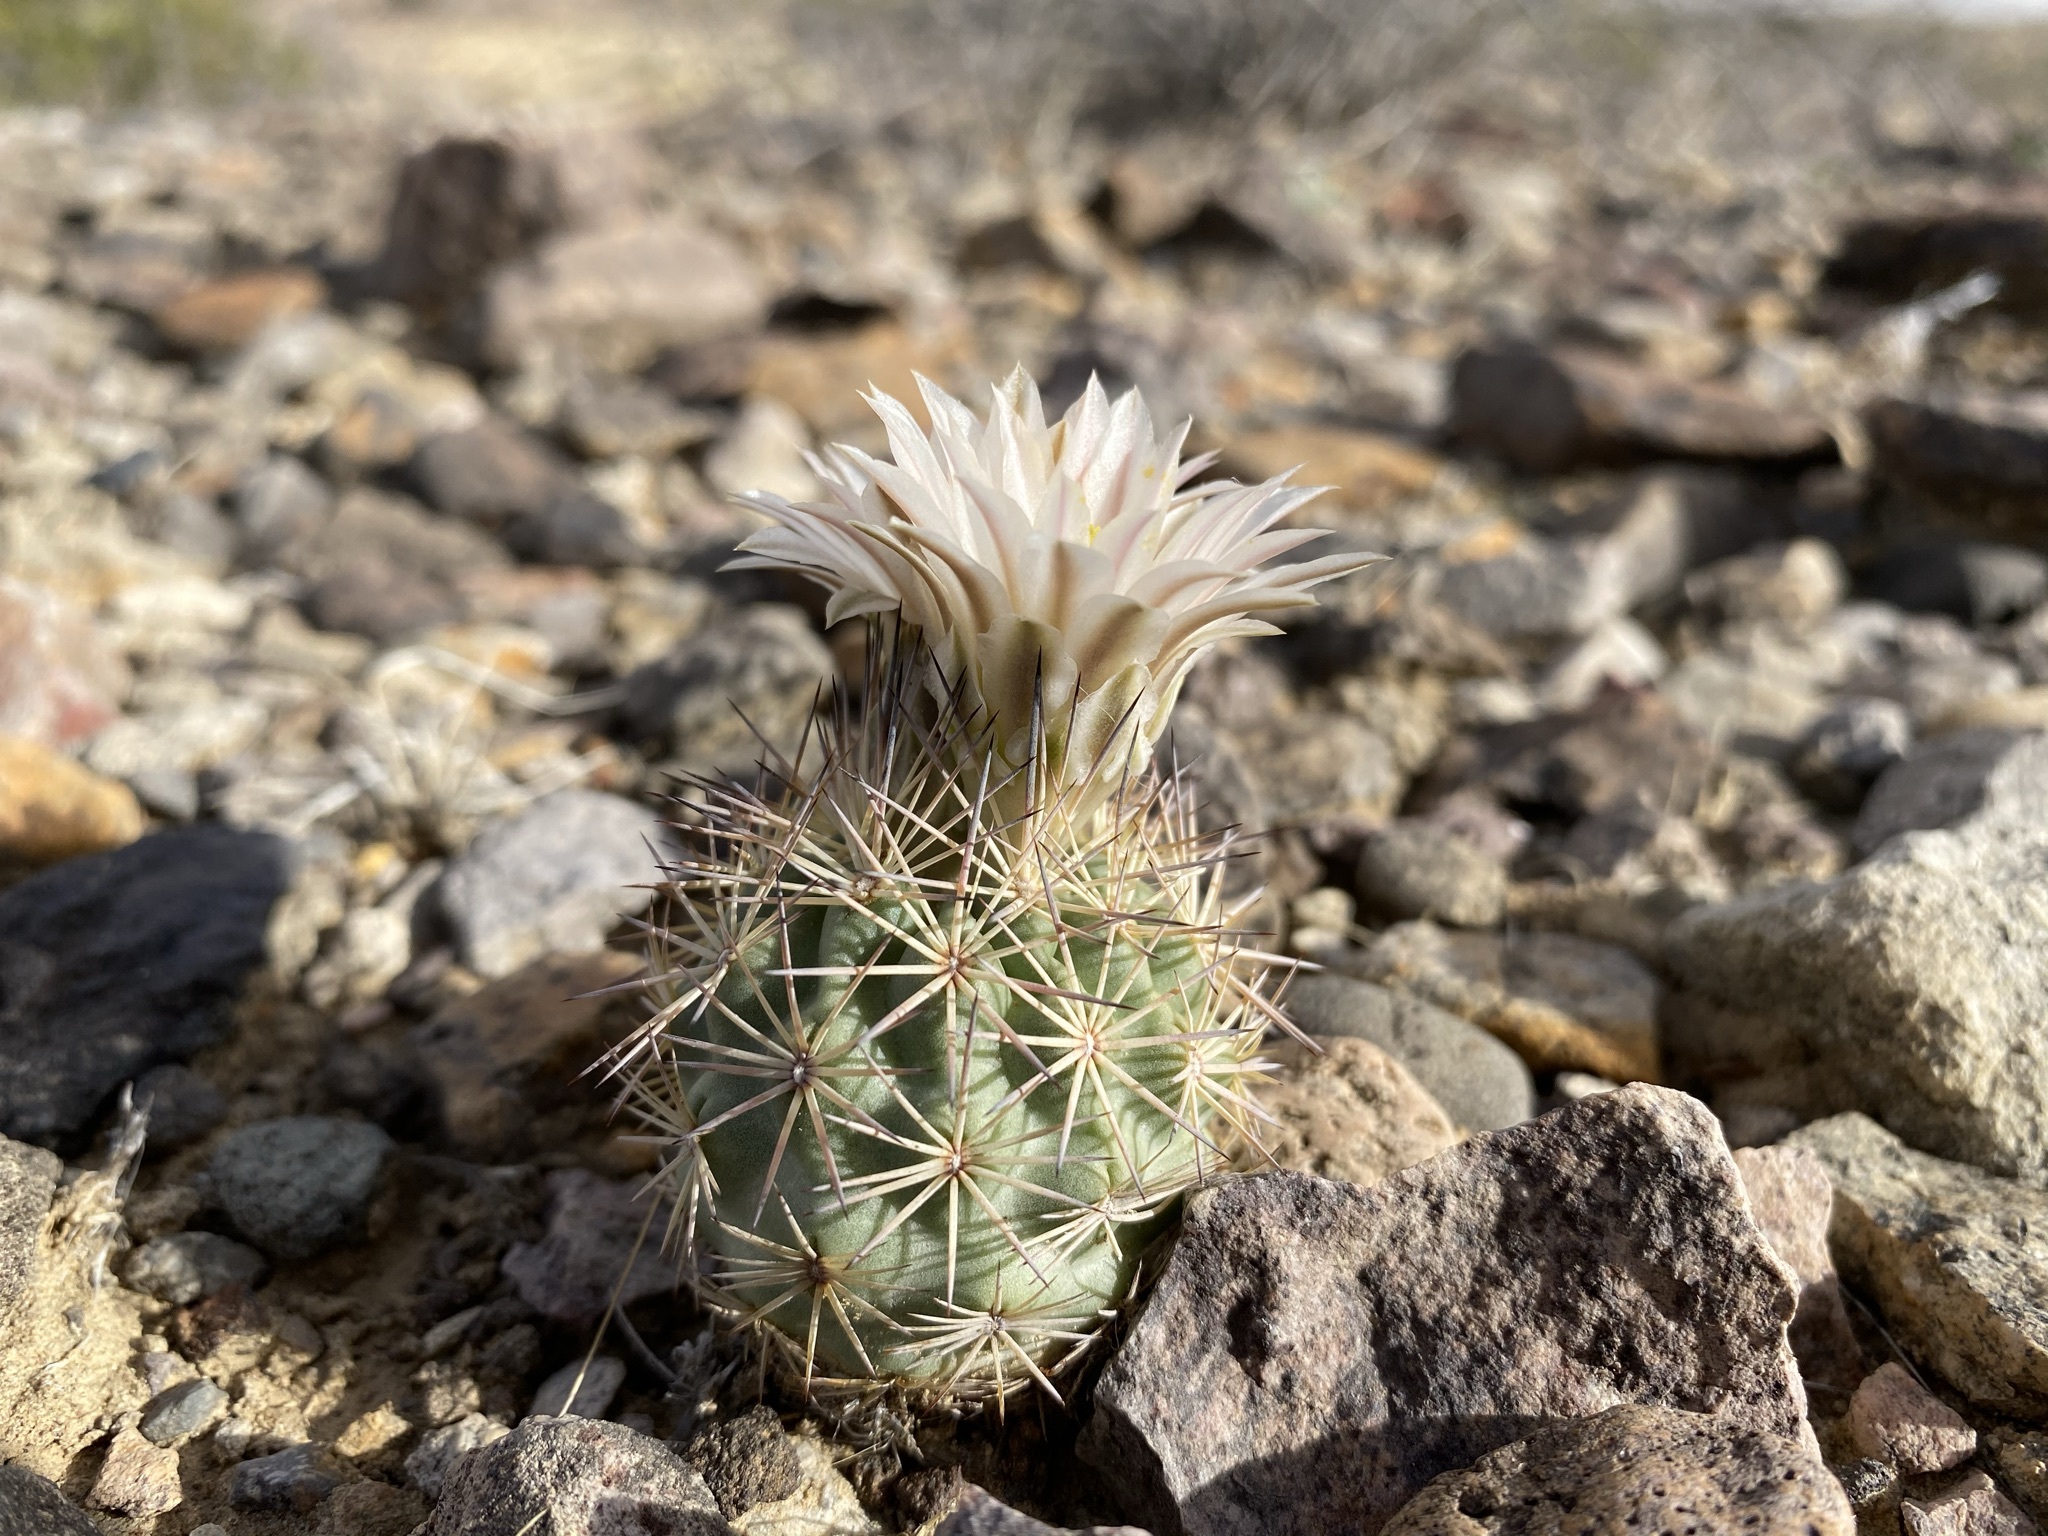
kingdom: Plantae
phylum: Tracheophyta
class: Magnoliopsida
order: Caryophyllales
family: Cactaceae
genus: Sclerocactus
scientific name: Sclerocactus warnockii
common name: Pineapple cactus
